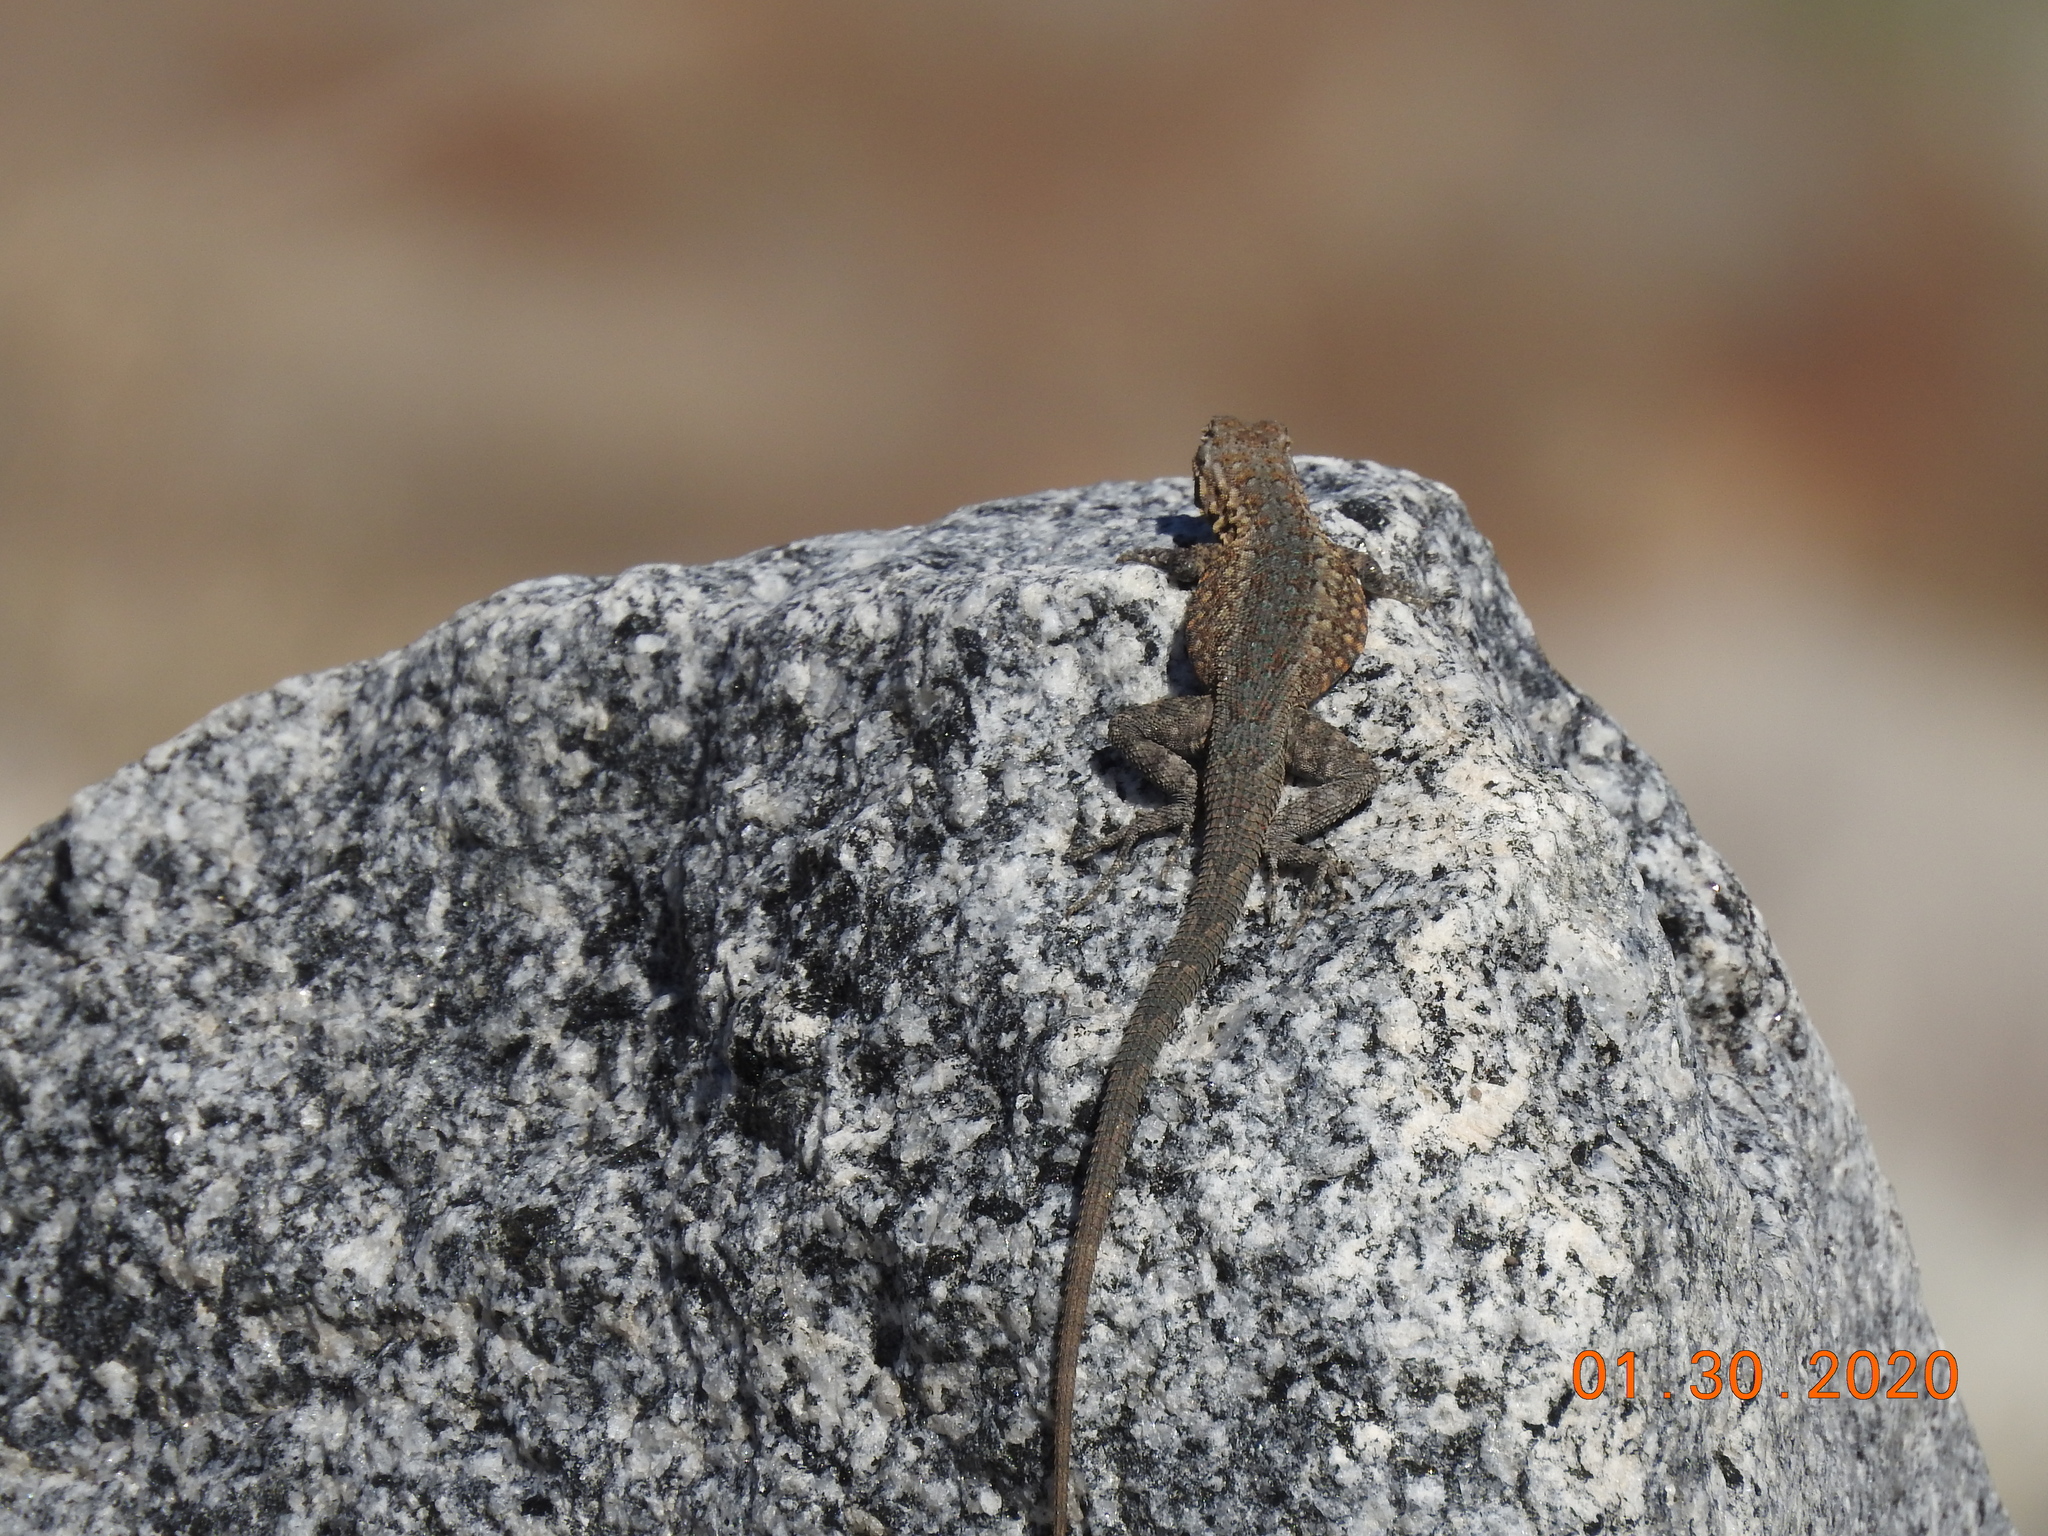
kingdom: Animalia
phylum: Chordata
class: Squamata
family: Phrynosomatidae
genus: Uta
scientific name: Uta stansburiana
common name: Side-blotched lizard
